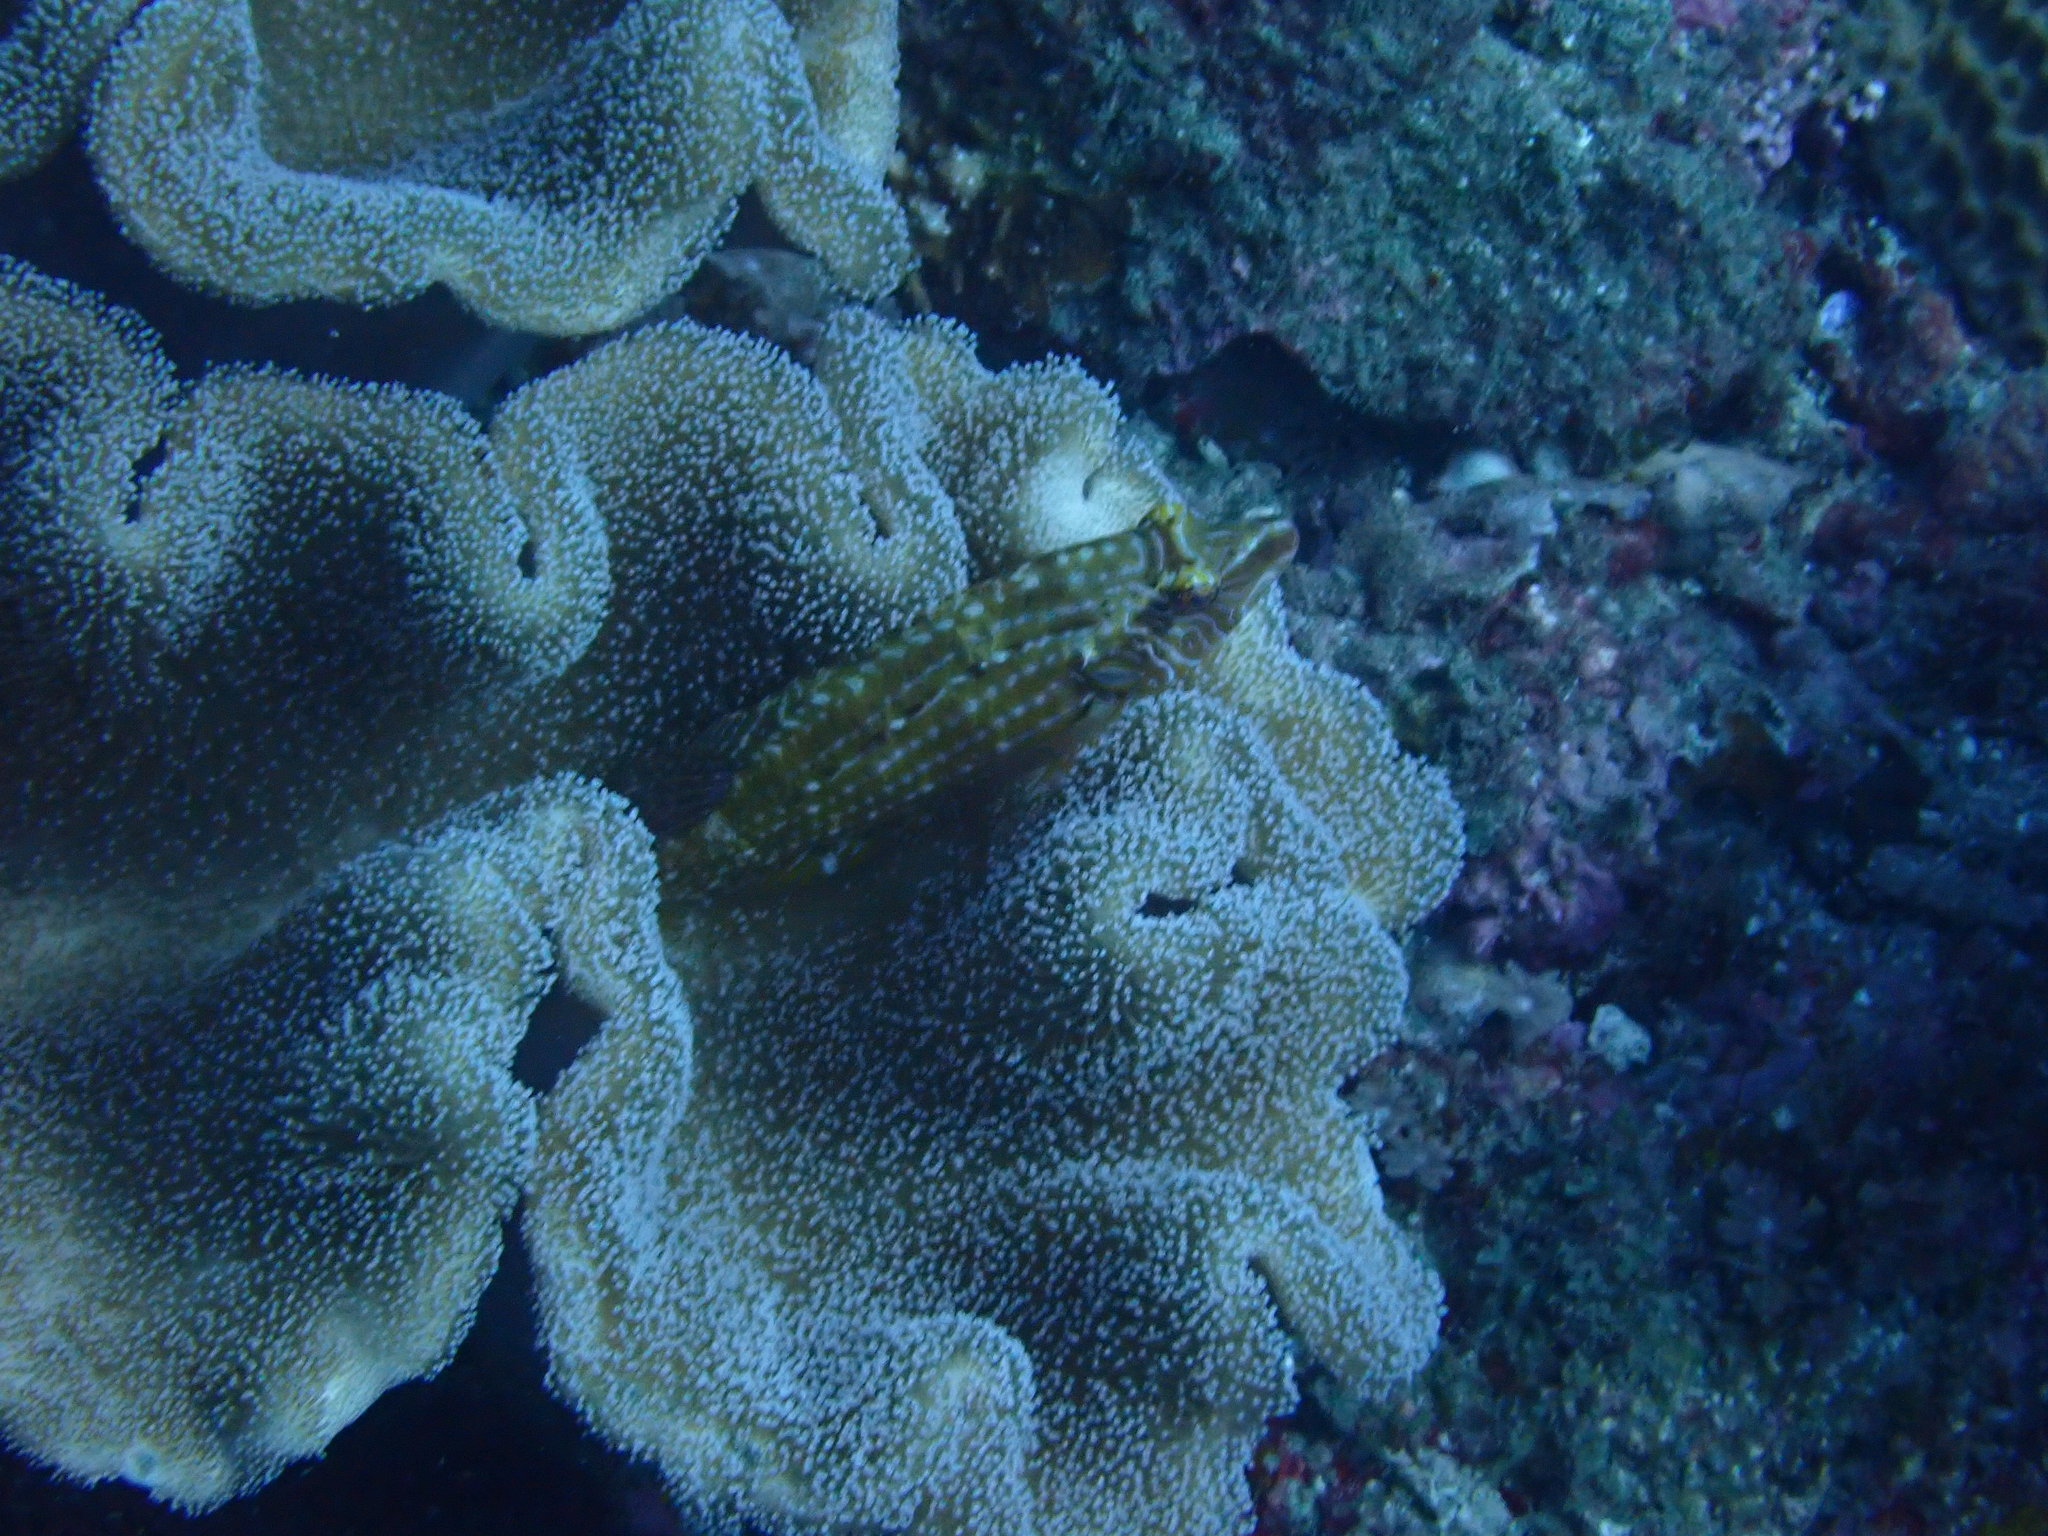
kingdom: Animalia
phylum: Chordata
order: Perciformes
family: Labridae
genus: Pteragogus
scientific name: Pteragogus enneacanthus
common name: Cockerel wrasse
